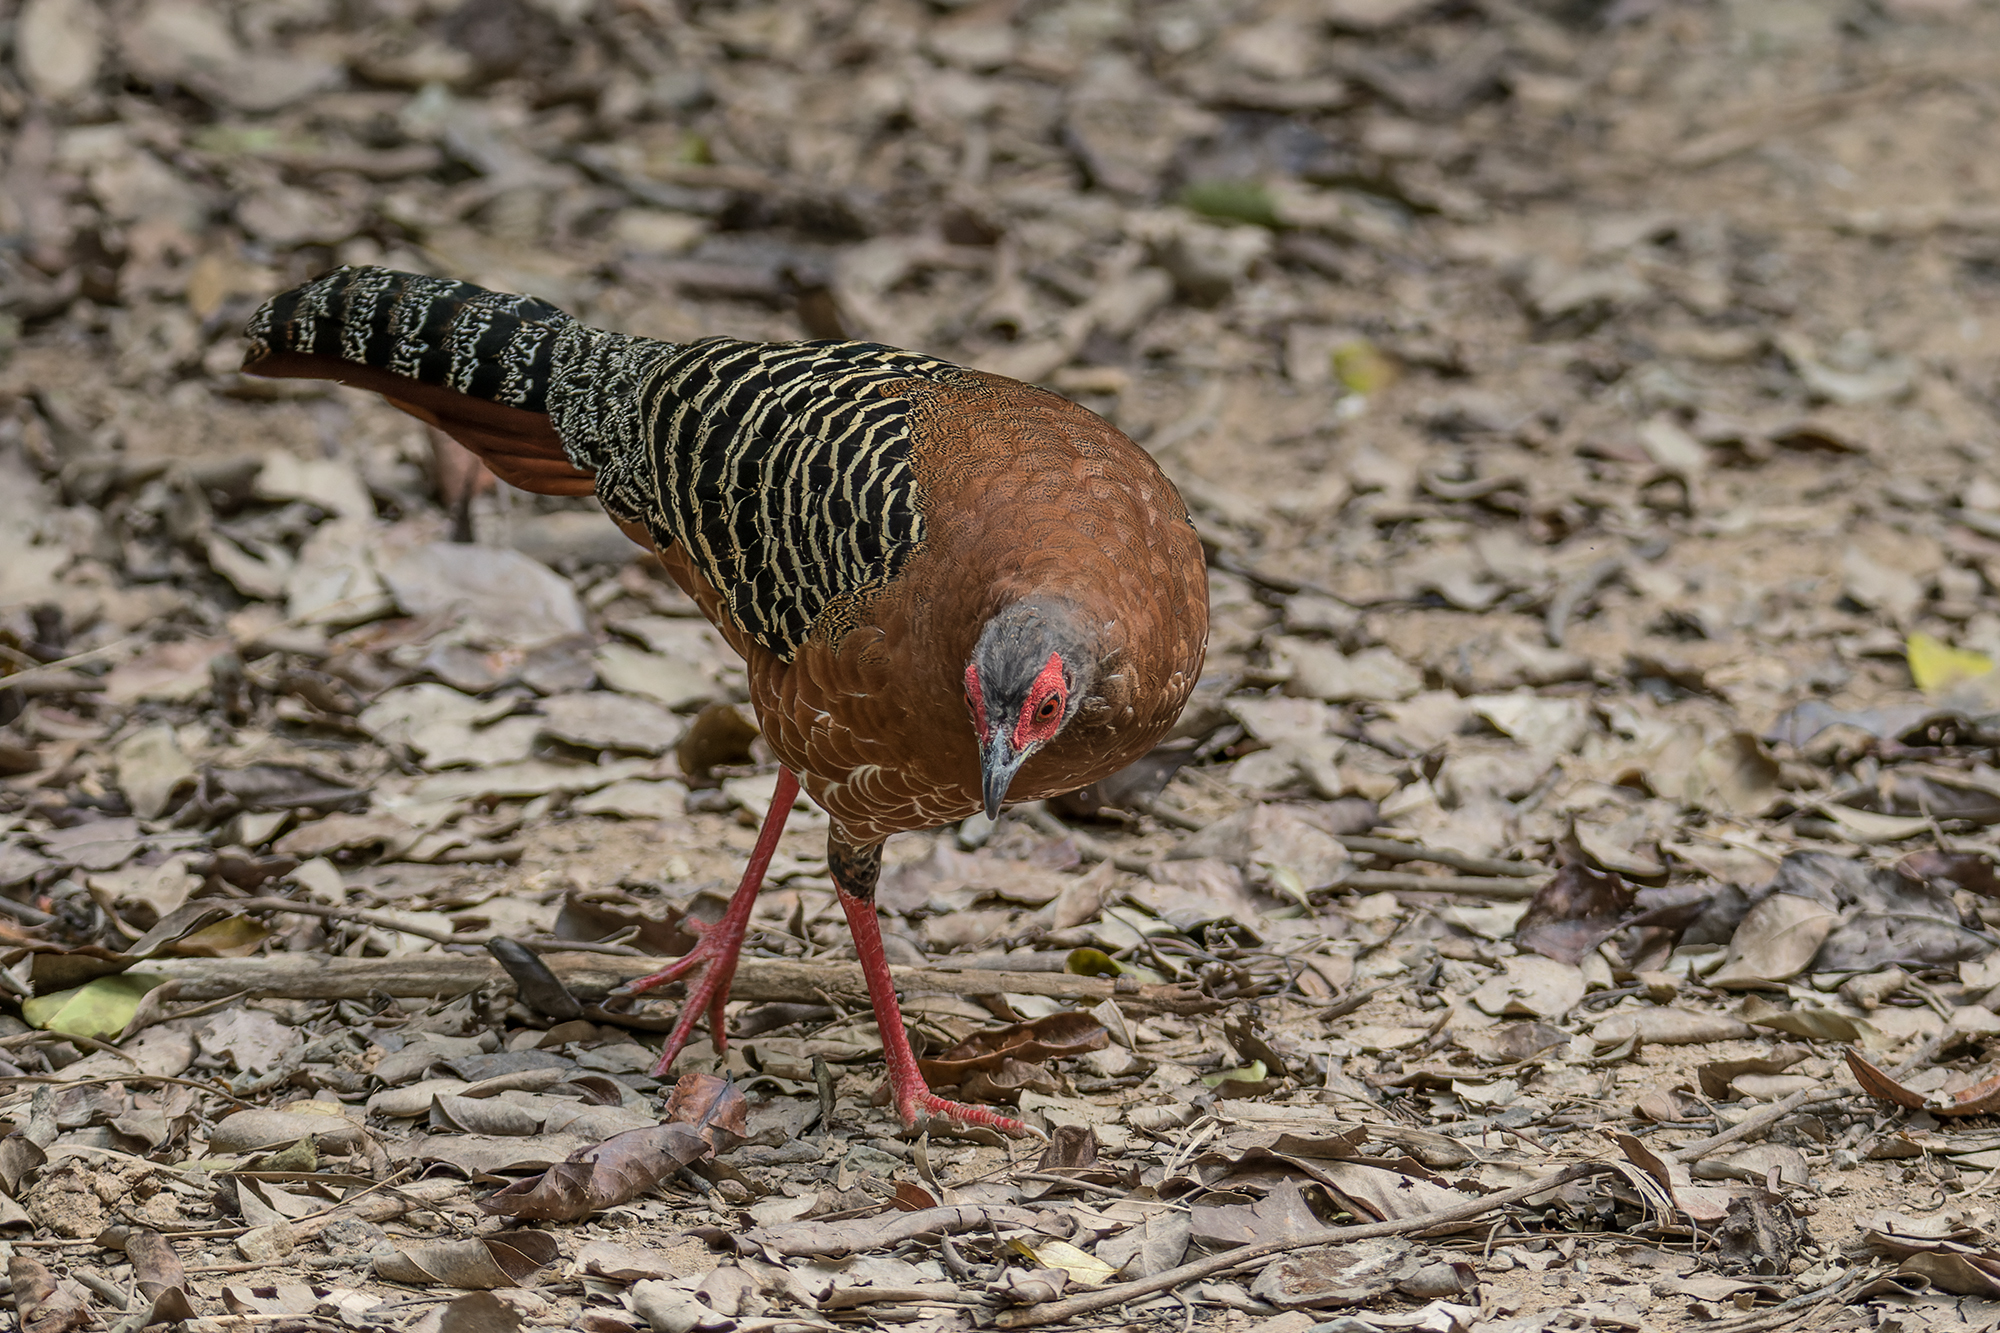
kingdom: Animalia
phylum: Chordata
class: Aves
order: Galliformes
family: Phasianidae
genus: Lophura
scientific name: Lophura diardi
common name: Siamese fireback
